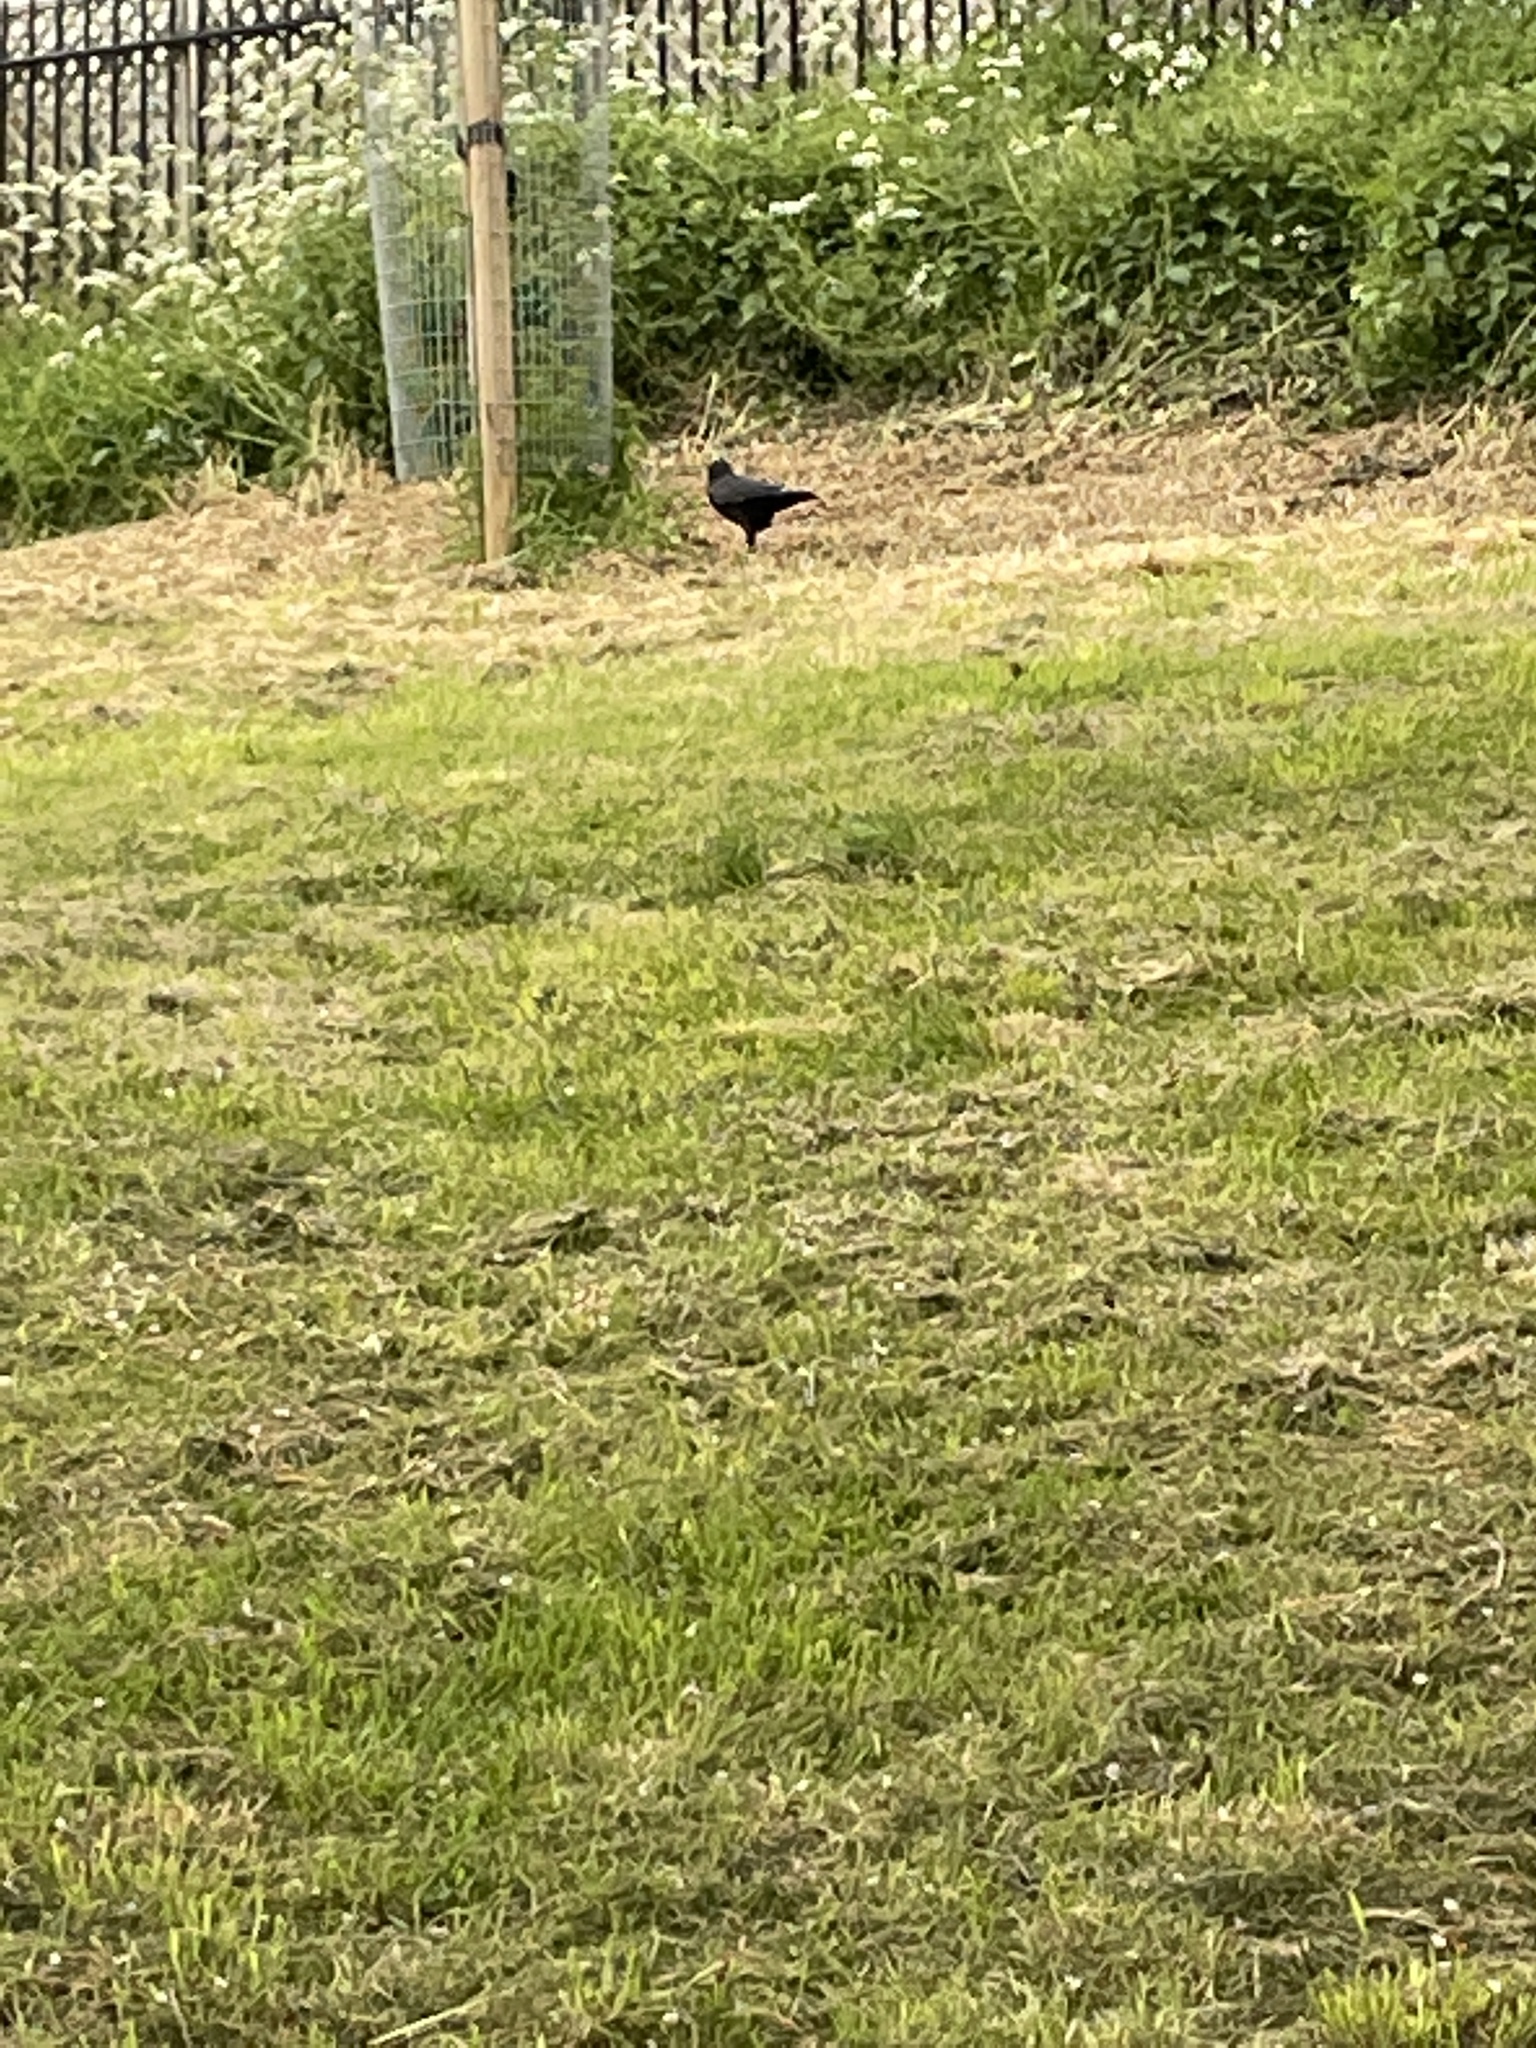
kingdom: Animalia
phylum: Chordata
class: Aves
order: Passeriformes
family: Corvidae
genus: Corvus
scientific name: Corvus corone
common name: Carrion crow
